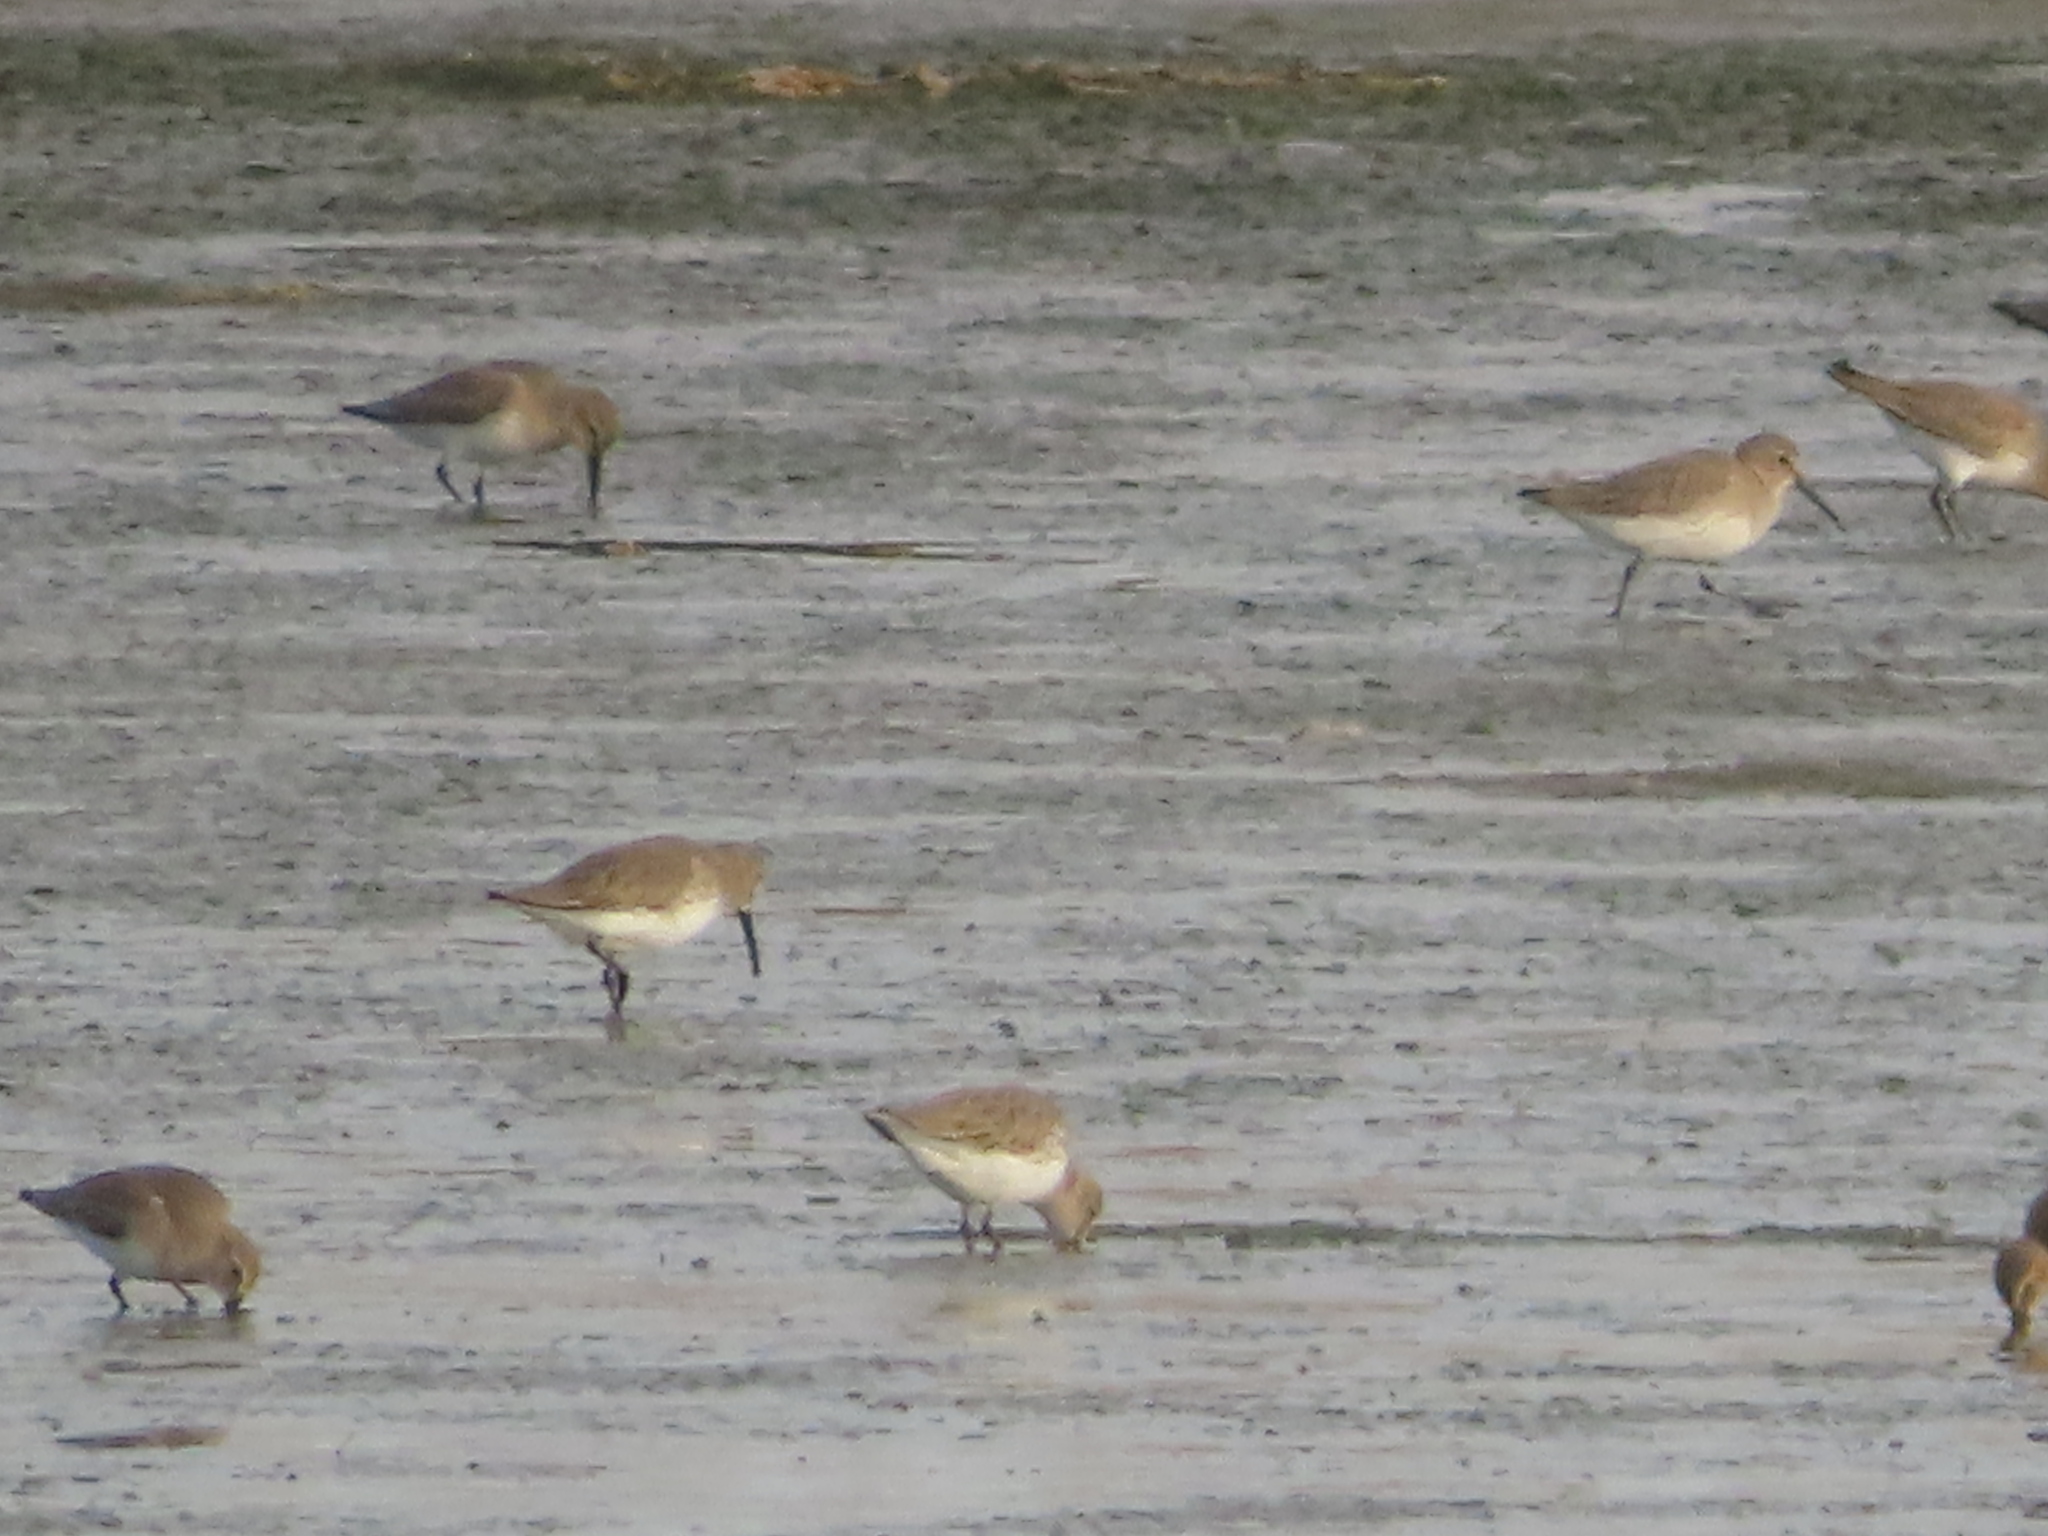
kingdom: Animalia
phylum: Chordata
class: Aves
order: Charadriiformes
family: Scolopacidae
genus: Calidris
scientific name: Calidris alpina
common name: Dunlin
